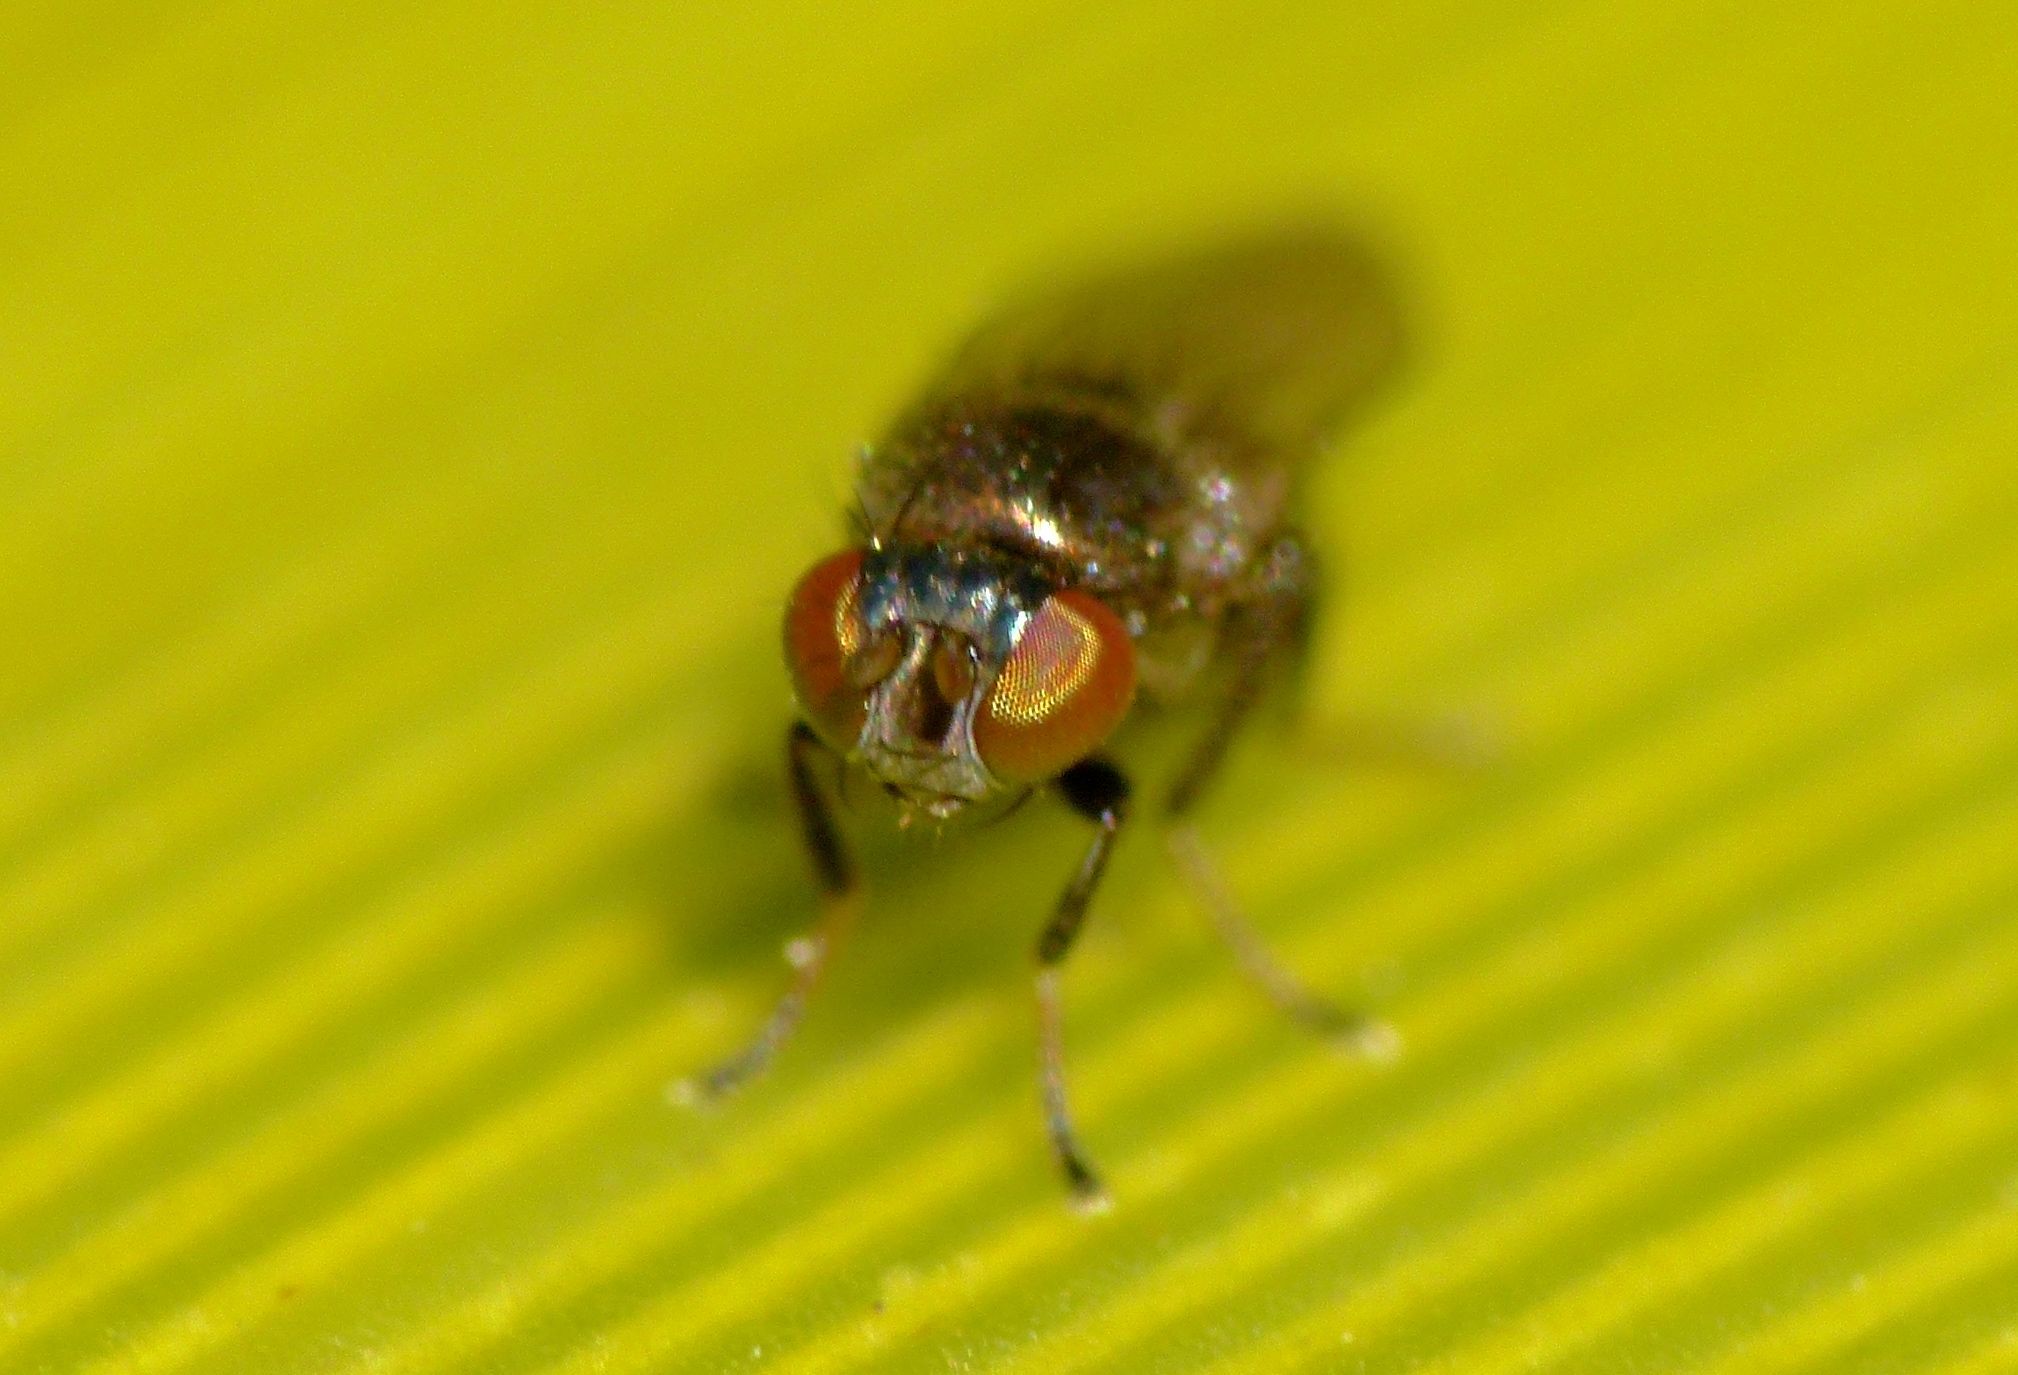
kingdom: Animalia
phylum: Arthropoda
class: Insecta
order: Diptera
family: Ephydridae
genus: Diasemocera
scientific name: Diasemocera metallica
